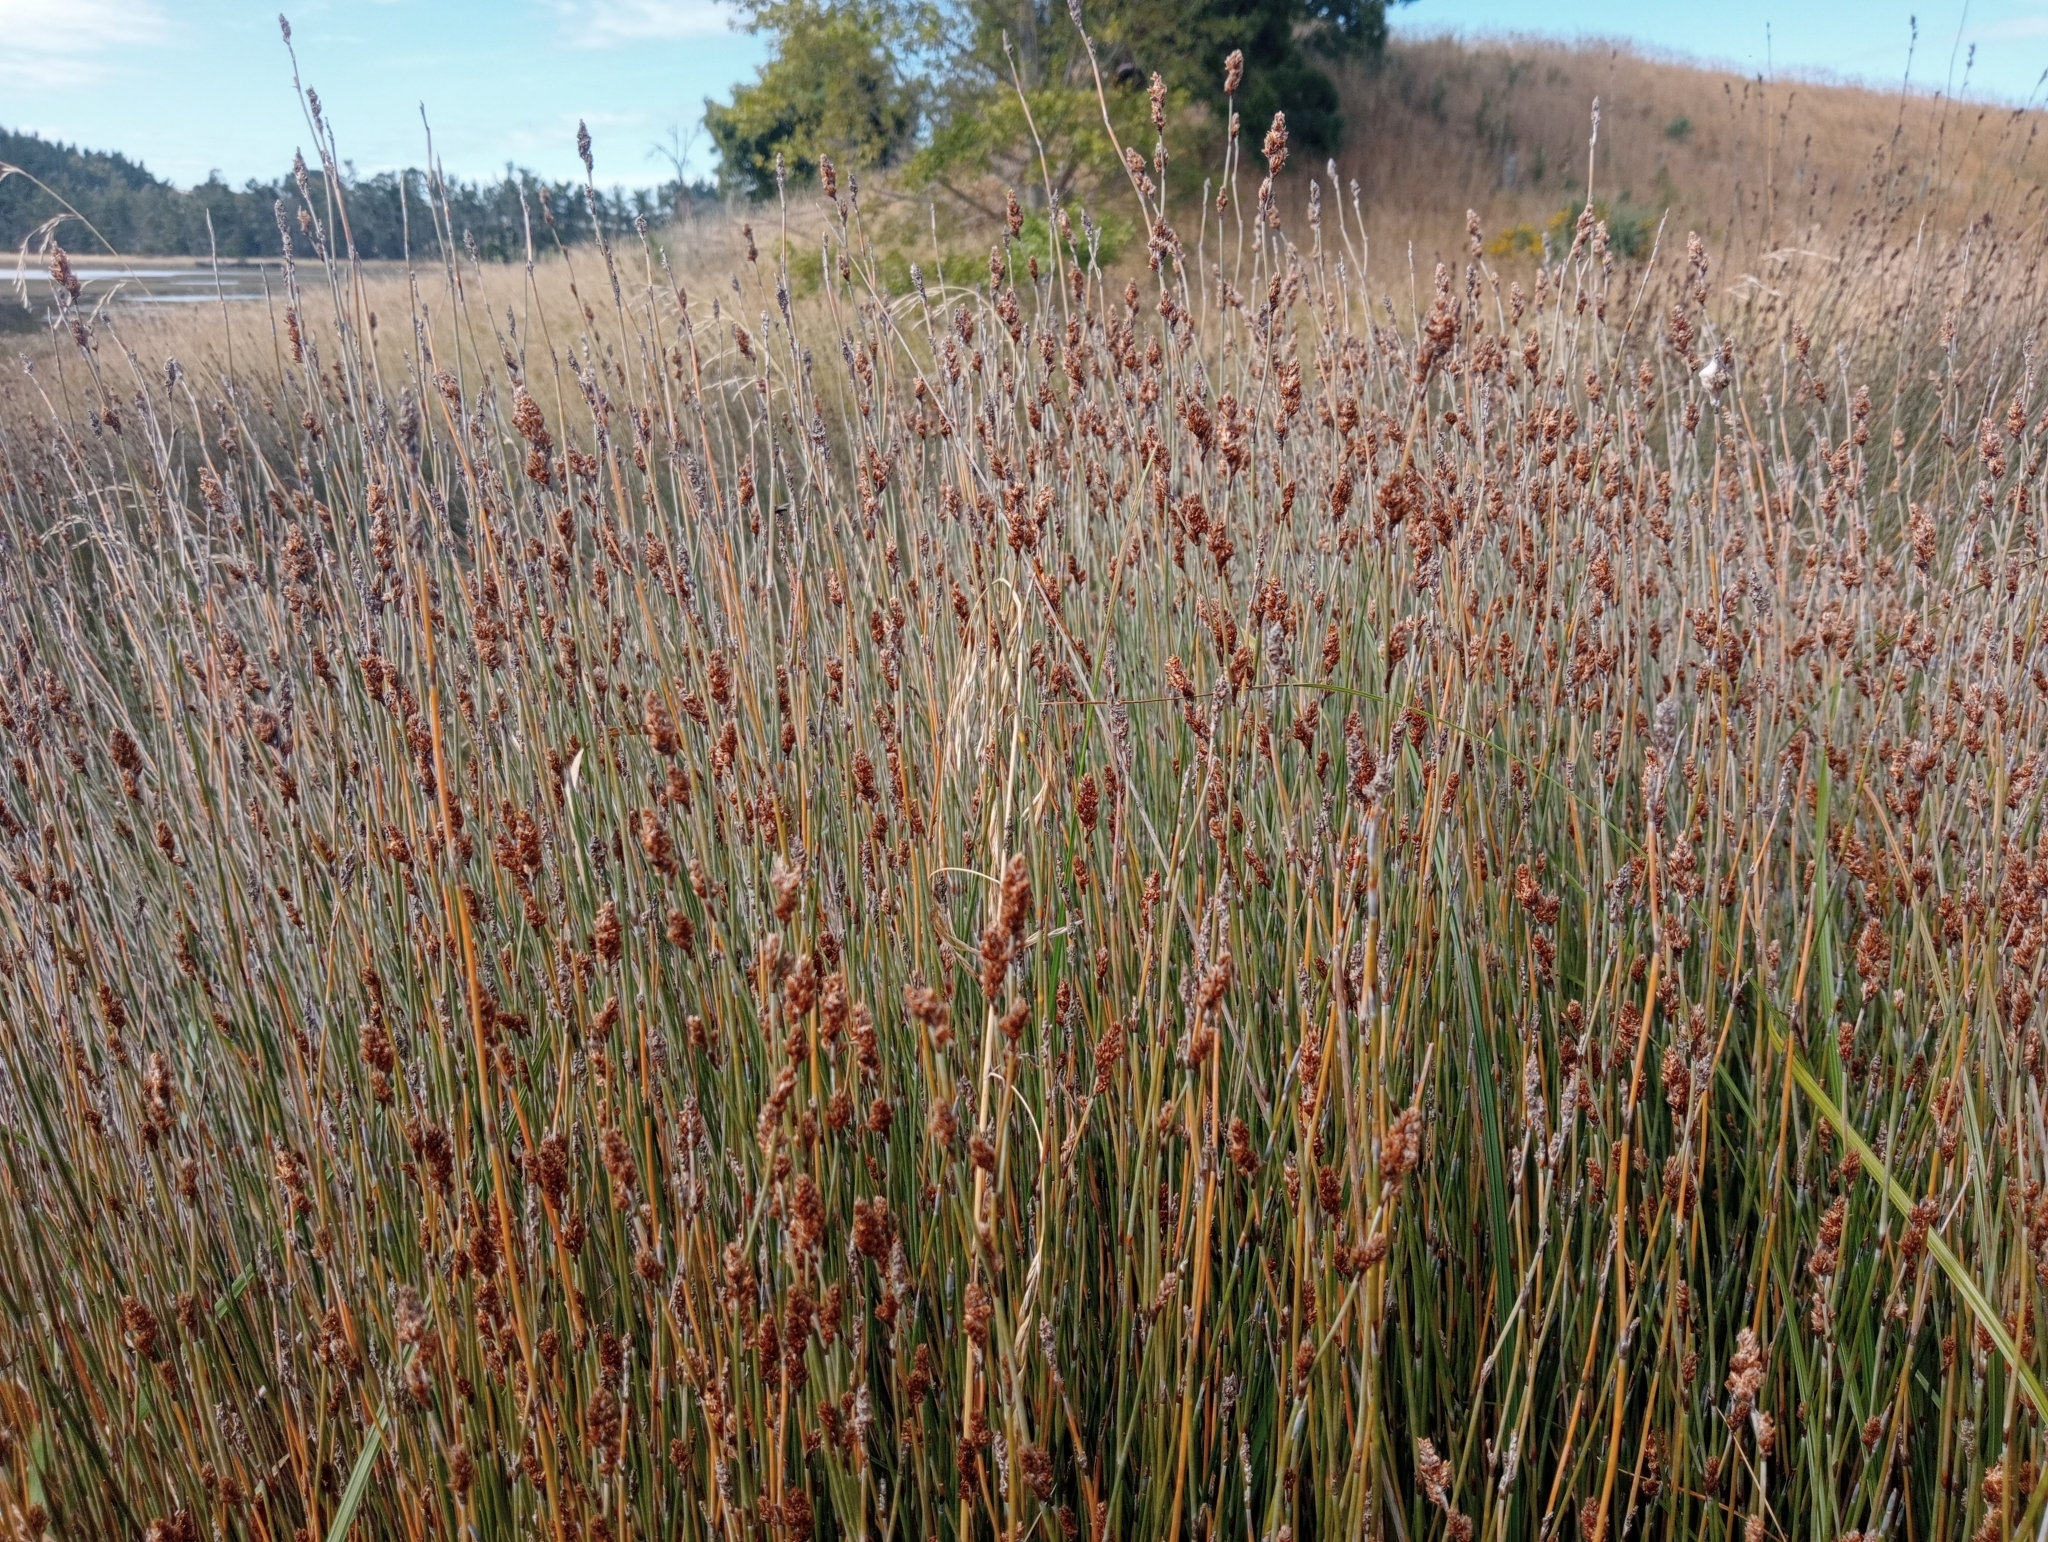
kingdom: Plantae
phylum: Tracheophyta
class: Liliopsida
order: Poales
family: Restionaceae
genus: Apodasmia
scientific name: Apodasmia similis
